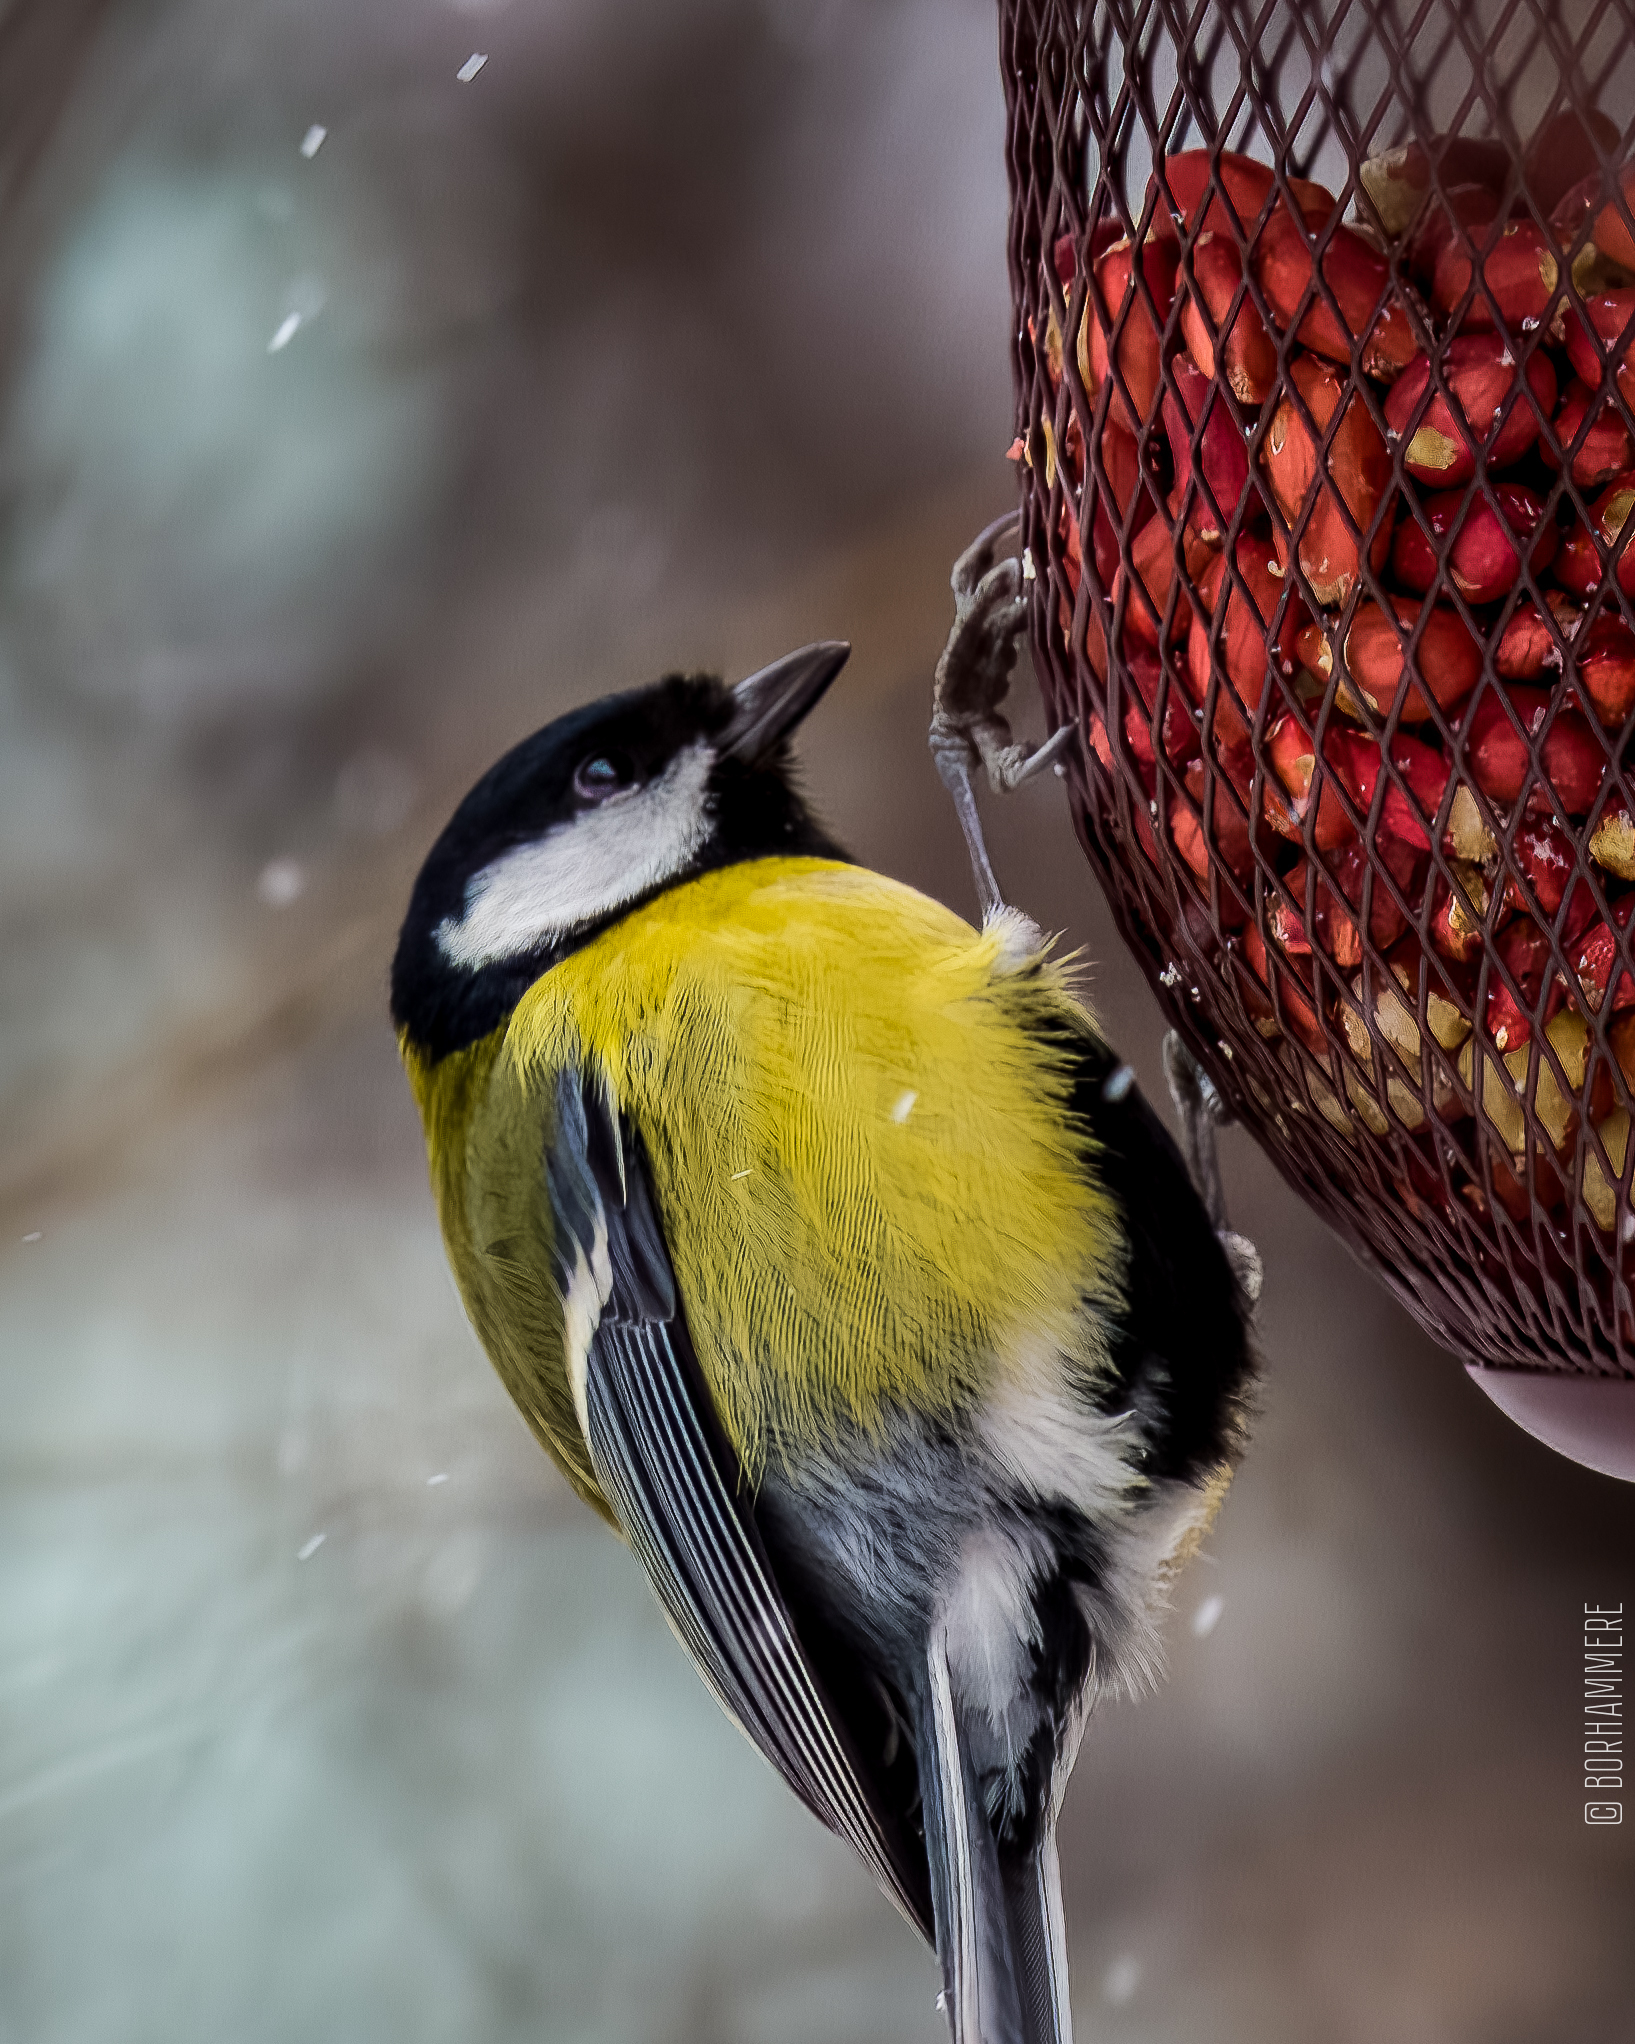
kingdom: Animalia
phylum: Chordata
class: Aves
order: Passeriformes
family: Paridae
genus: Parus
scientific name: Parus major
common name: Great tit
